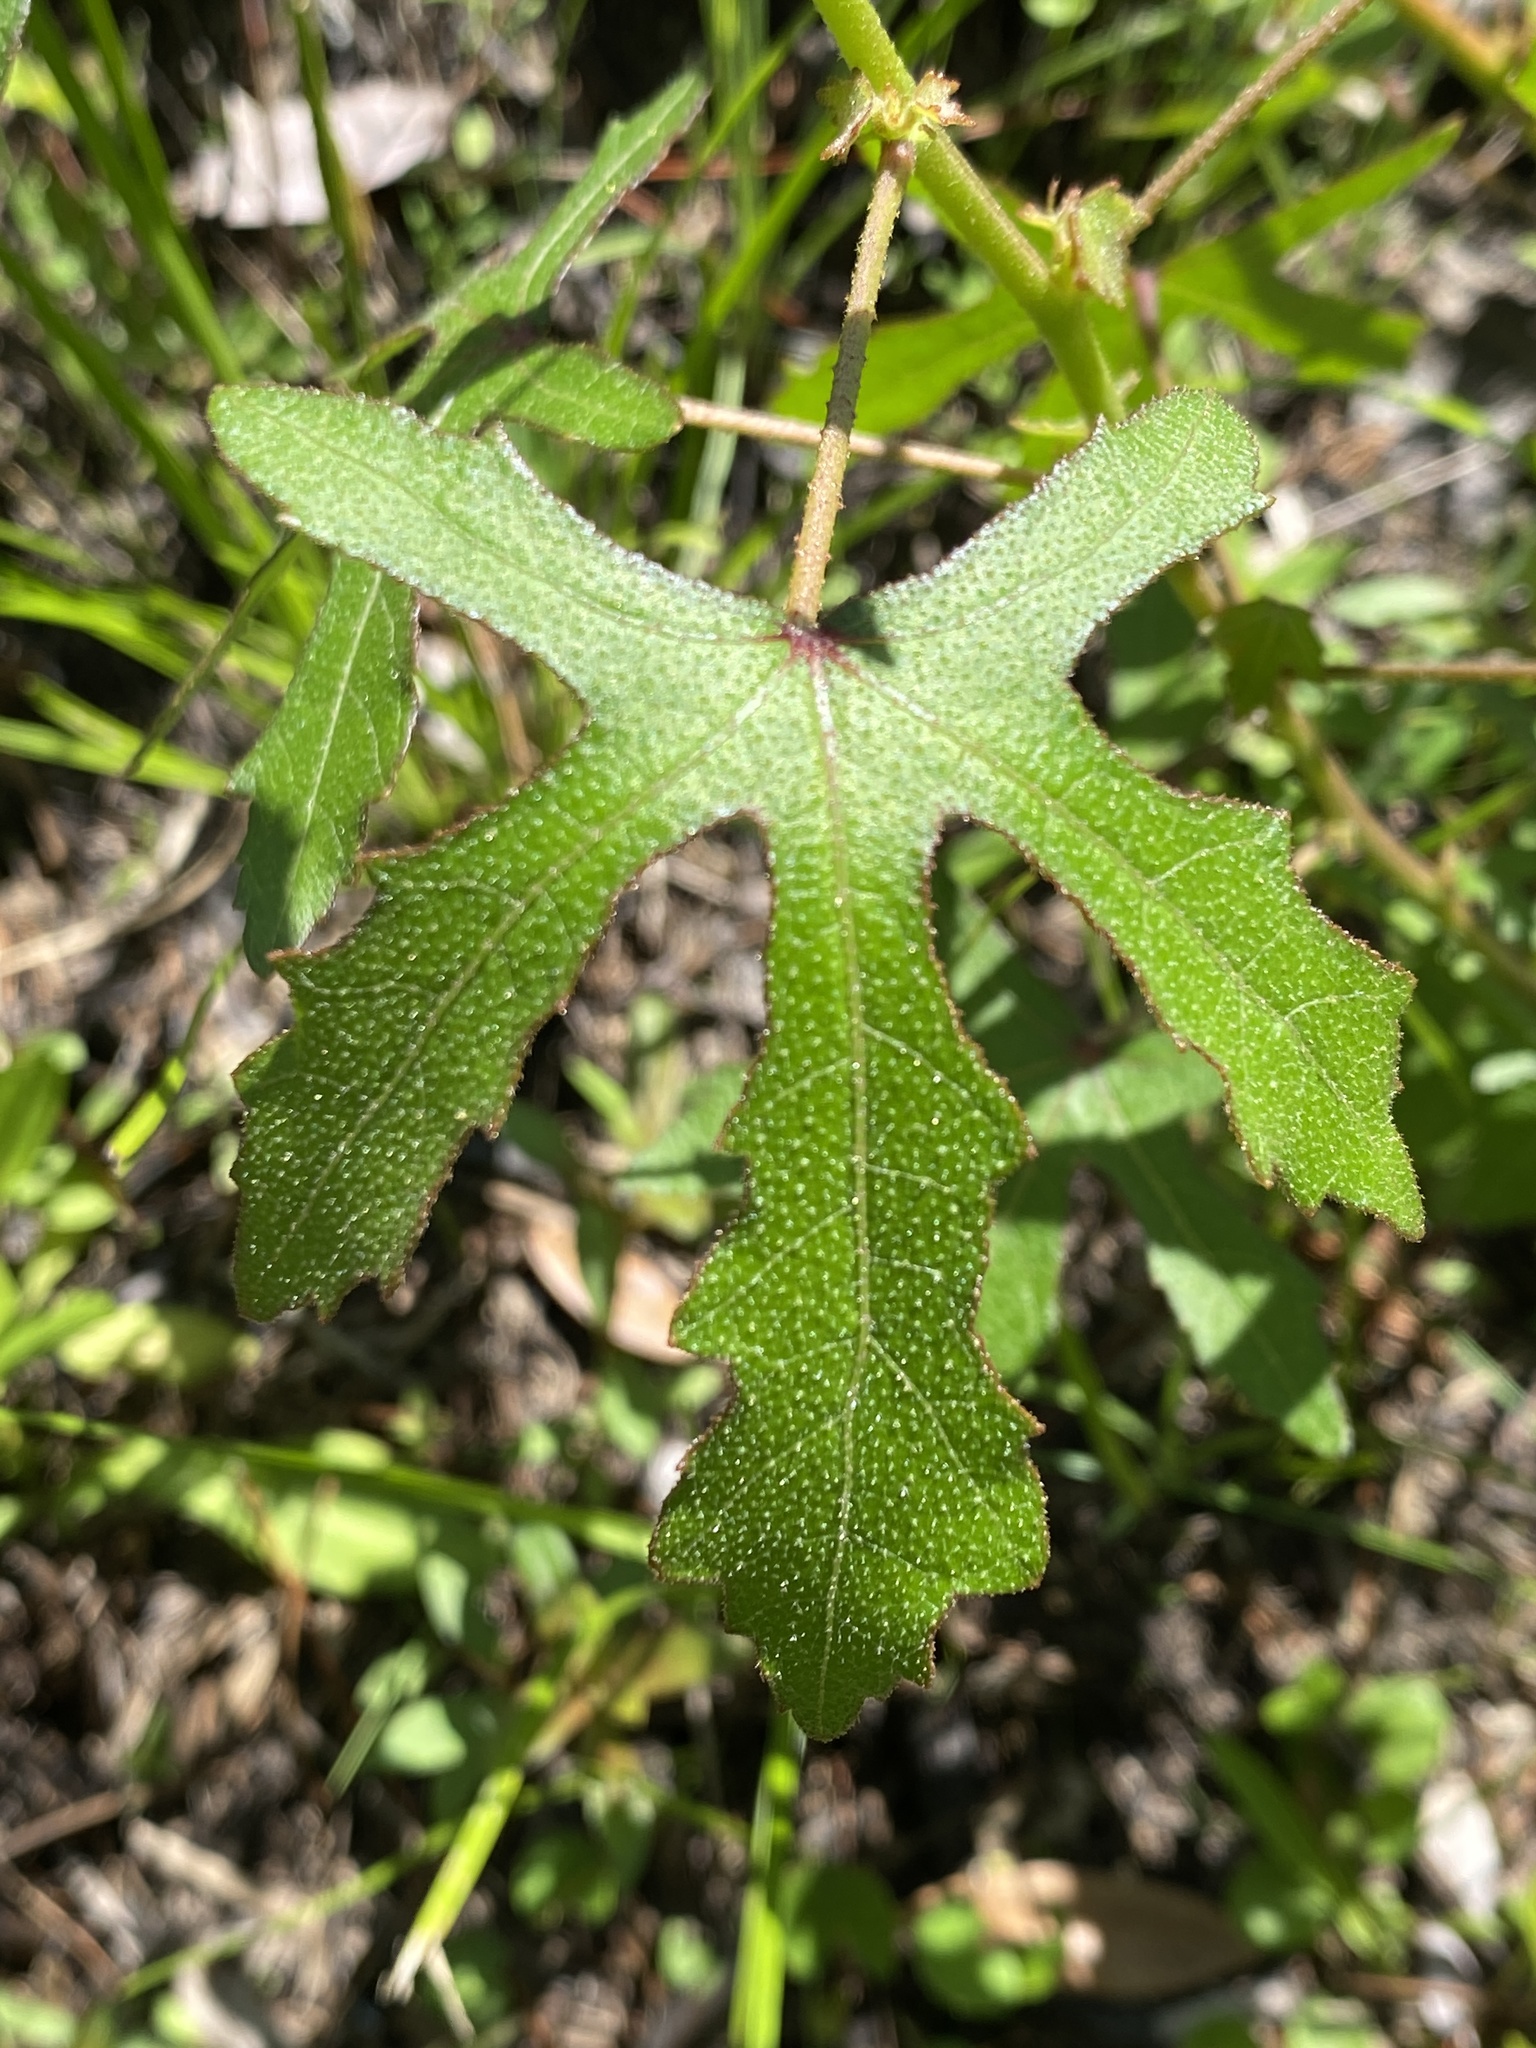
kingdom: Plantae
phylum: Tracheophyta
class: Magnoliopsida
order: Malvales
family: Malvaceae
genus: Hibiscus
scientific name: Hibiscus aculeatus
